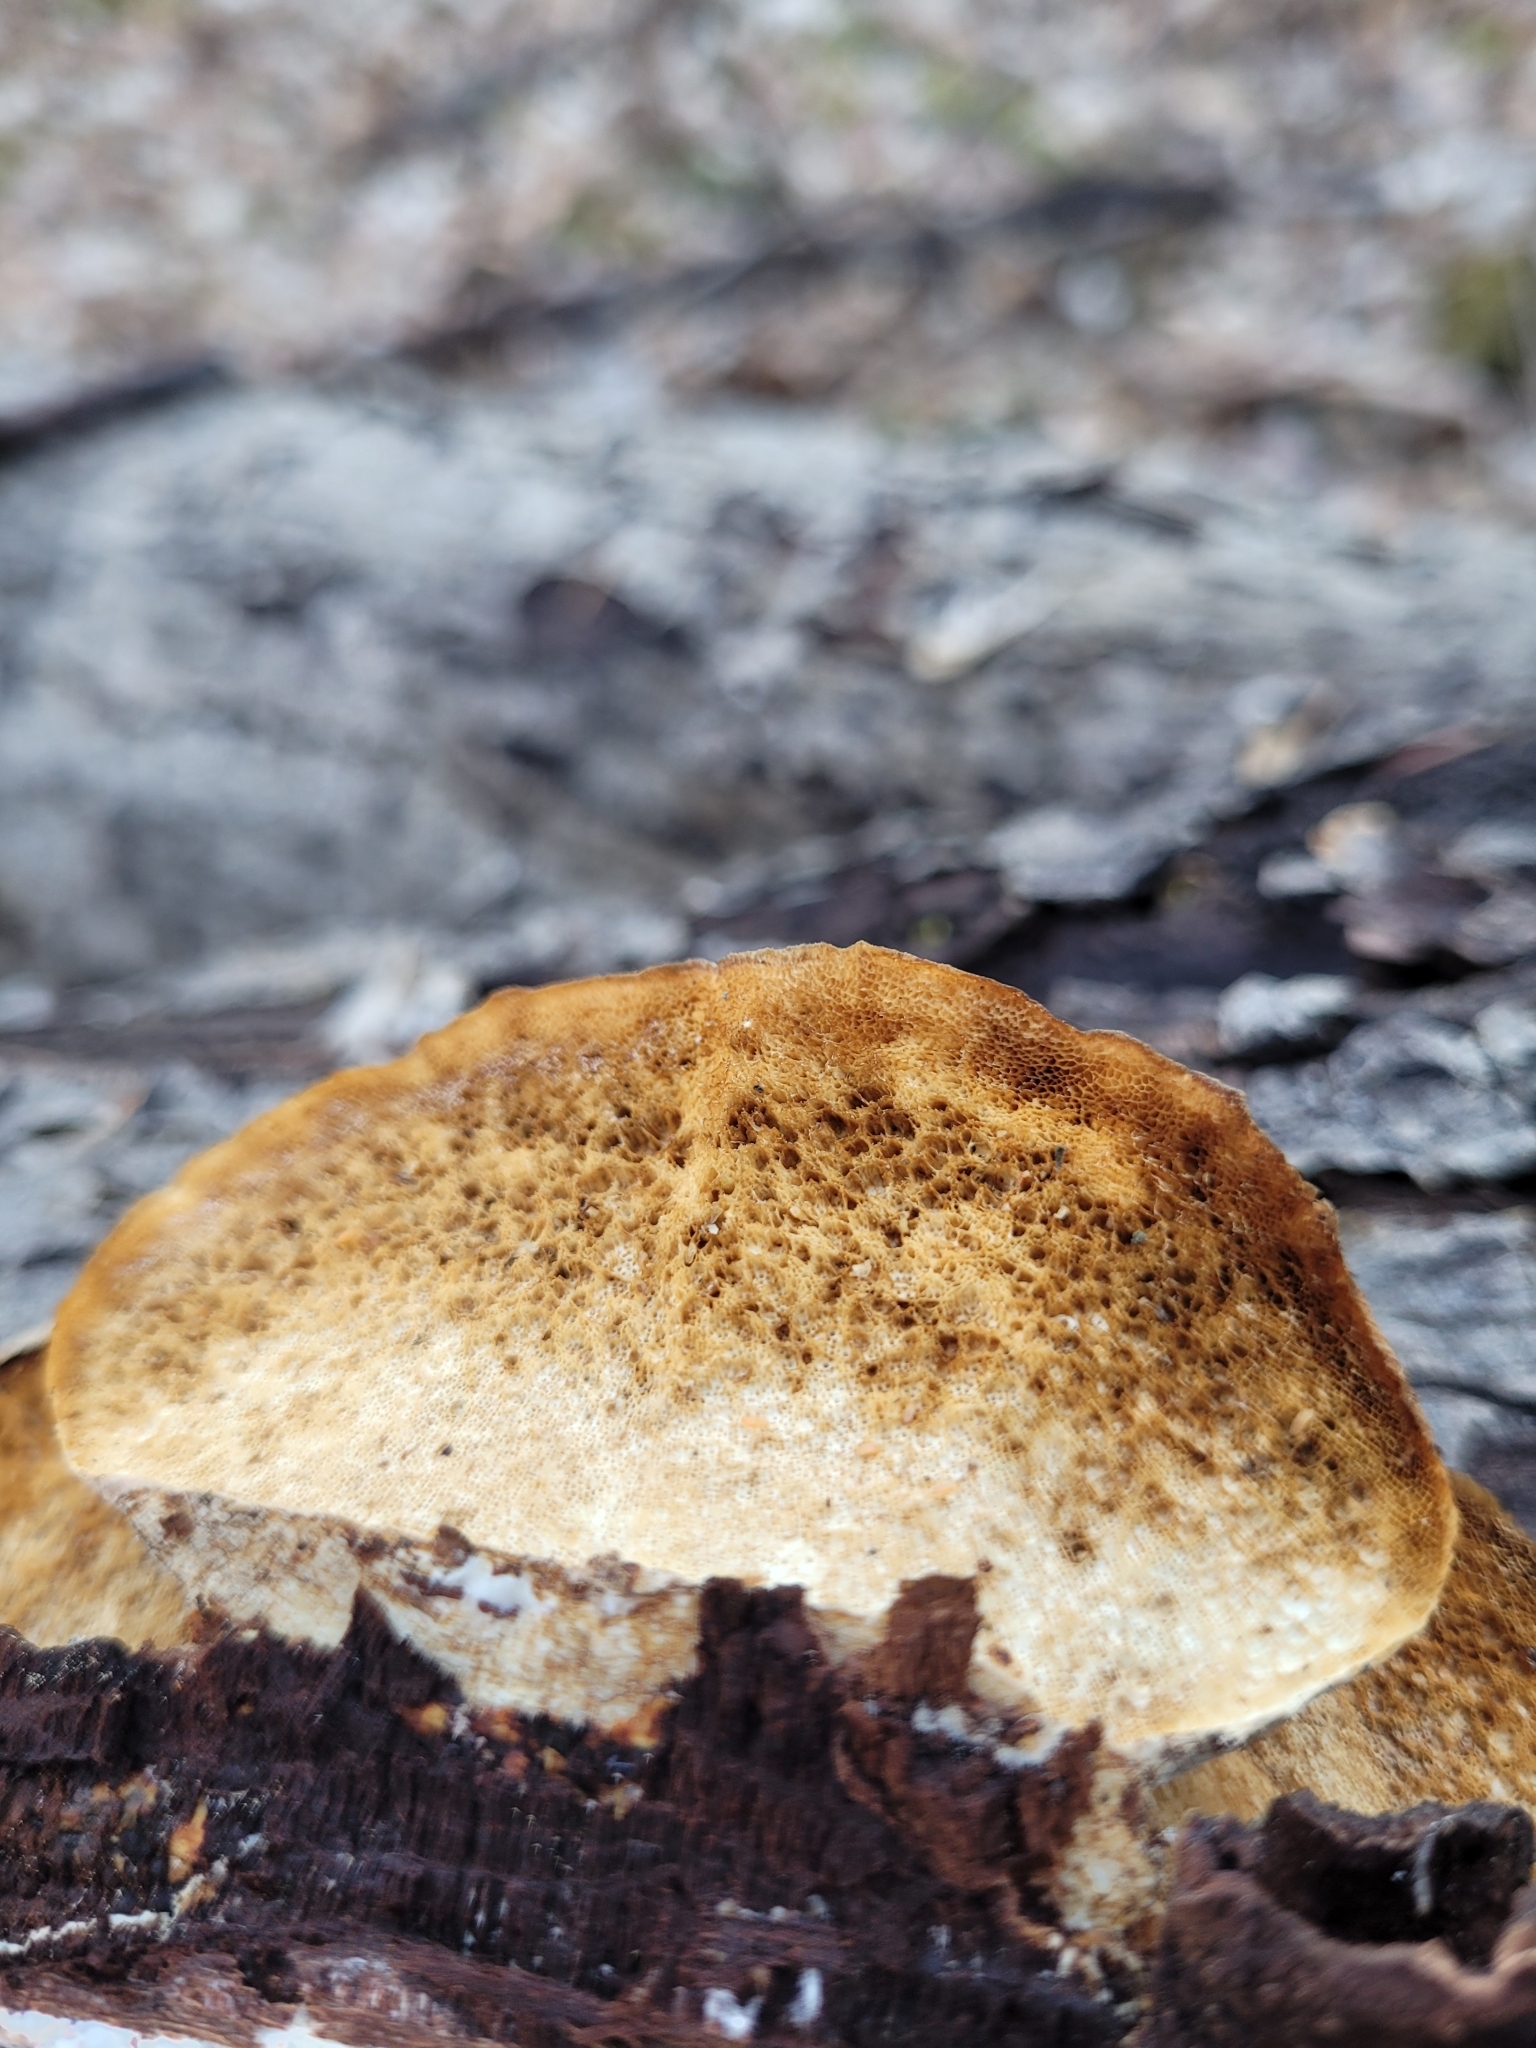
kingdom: Fungi
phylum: Basidiomycota
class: Agaricomycetes
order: Polyporales
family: Polyporaceae
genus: Trametes
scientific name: Trametes ochracea
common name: Ochre bracket
